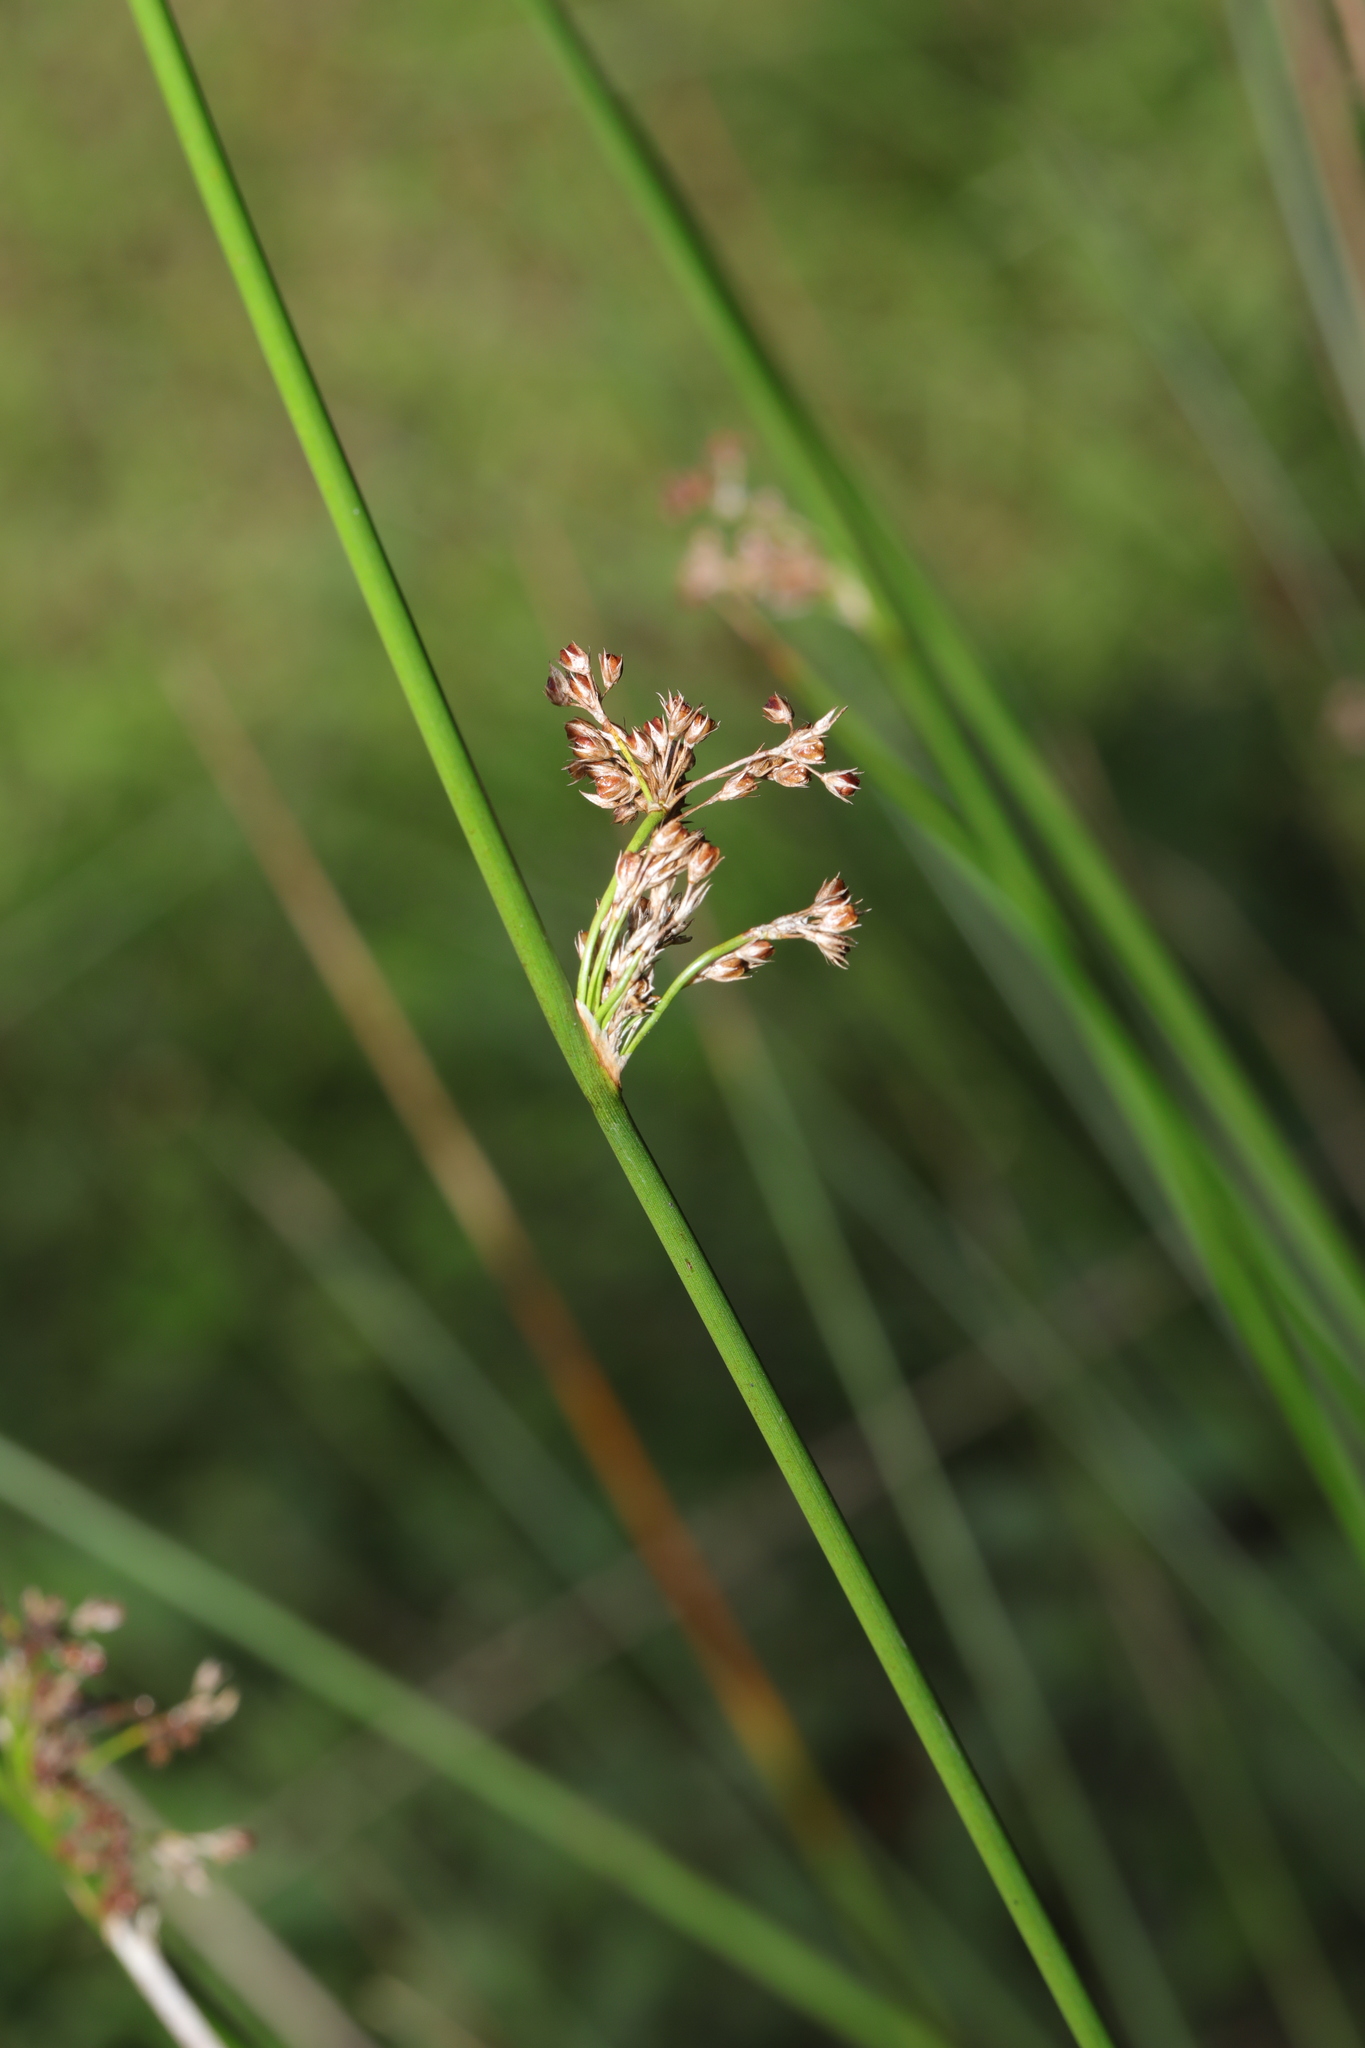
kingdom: Plantae
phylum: Tracheophyta
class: Liliopsida
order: Poales
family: Juncaceae
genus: Juncus
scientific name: Juncus effusus
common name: Soft rush
